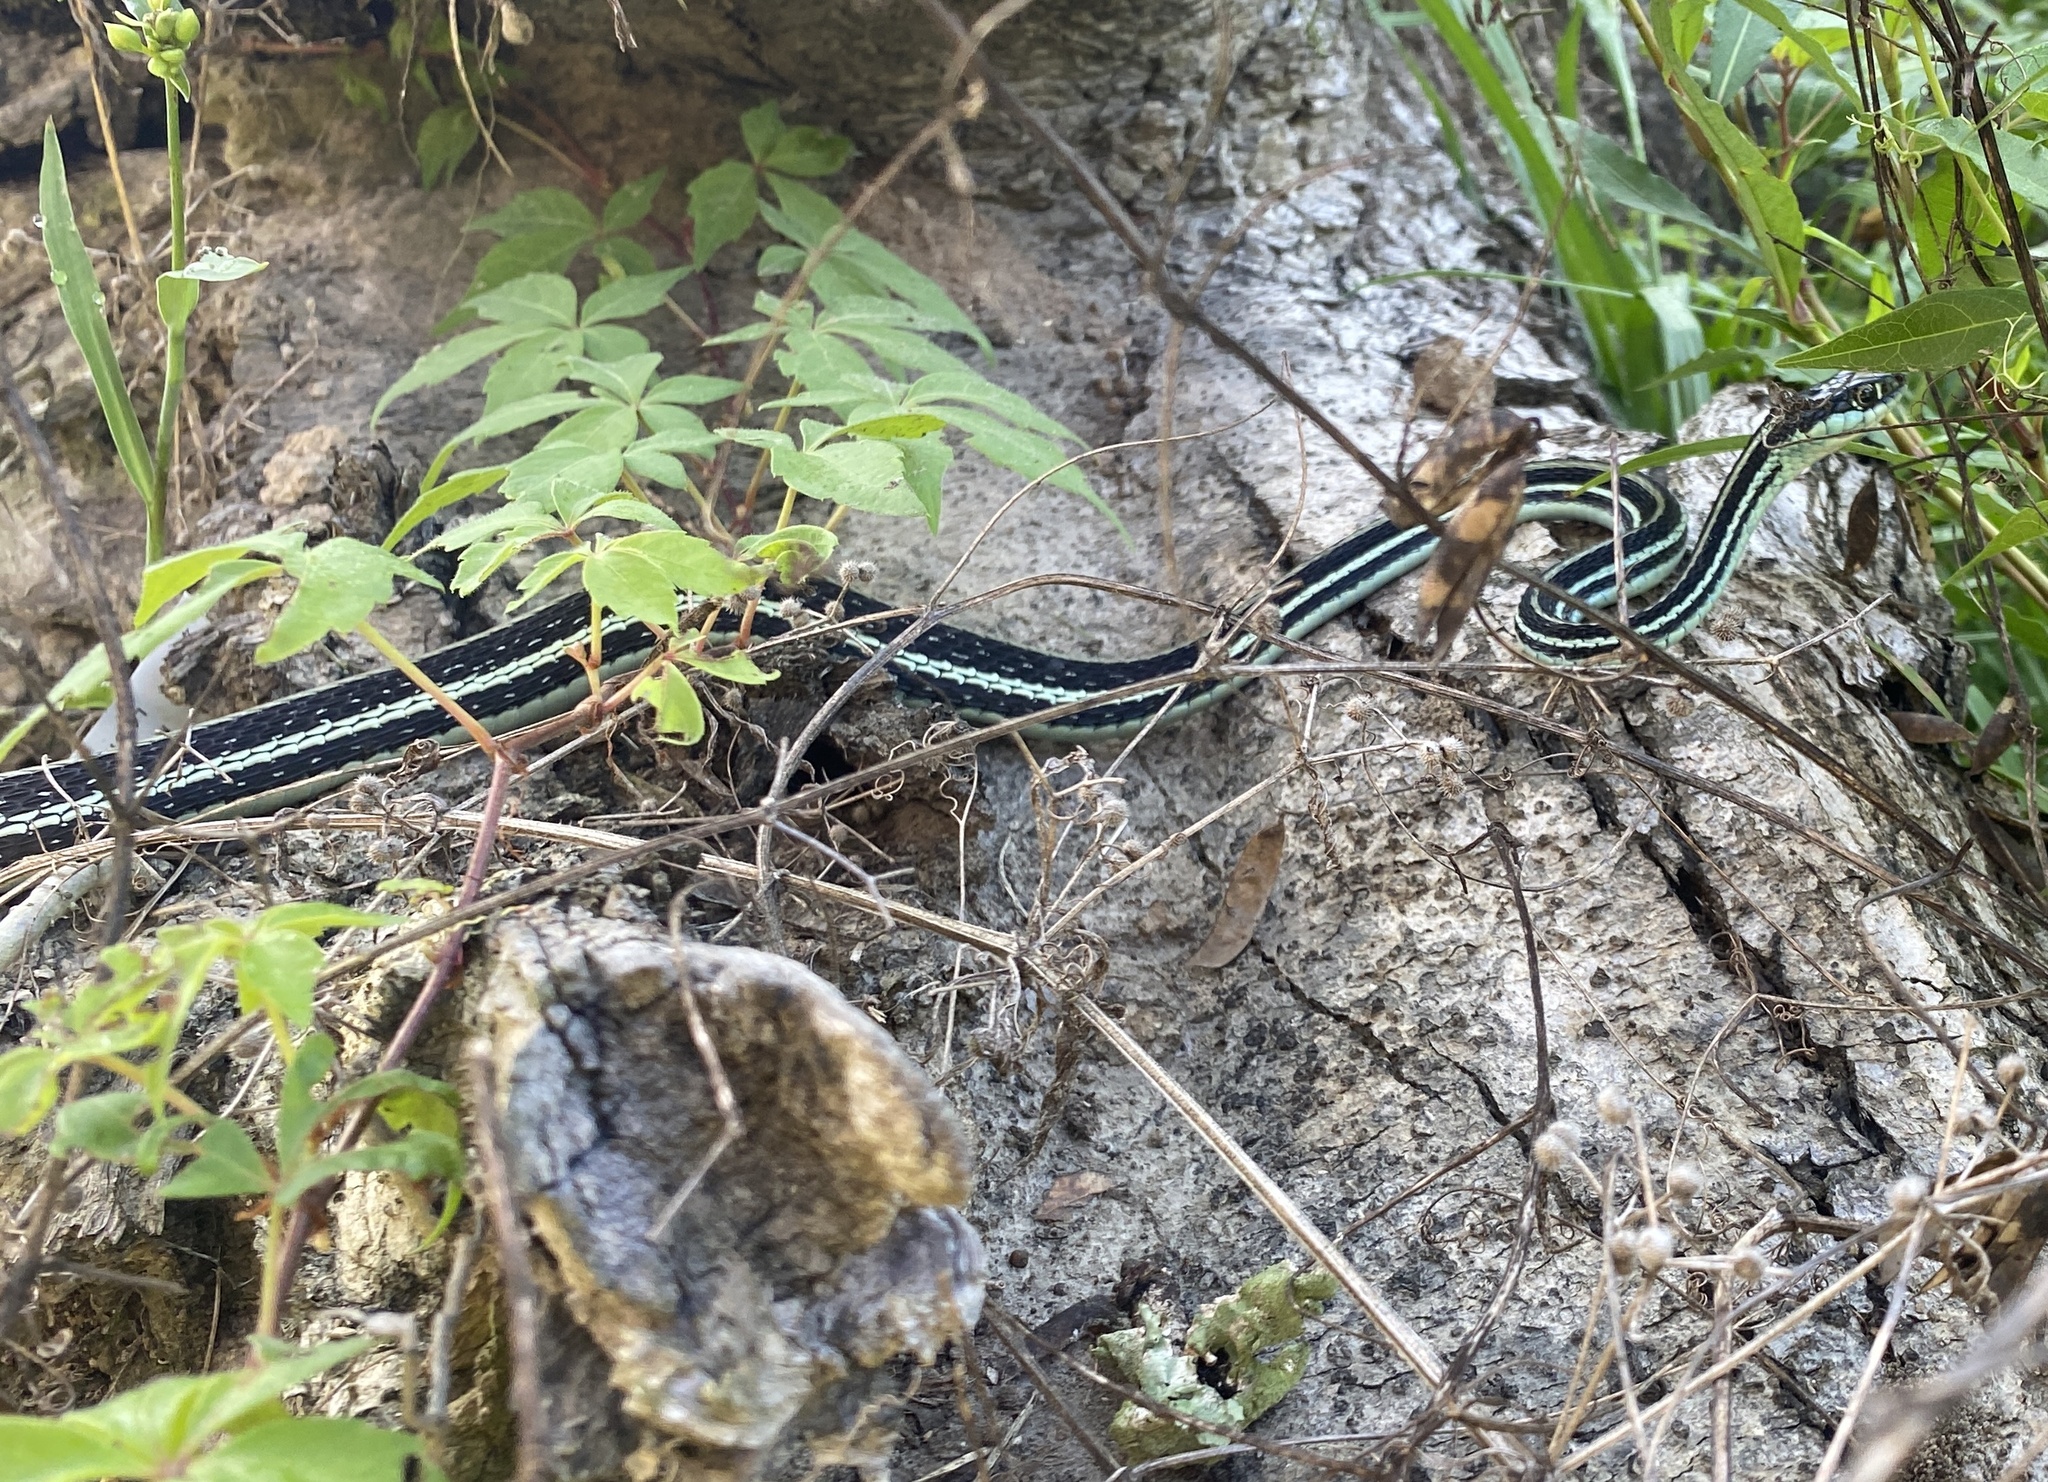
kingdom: Animalia
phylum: Chordata
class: Squamata
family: Colubridae
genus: Thamnophis
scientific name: Thamnophis proximus
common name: Western ribbon snake
